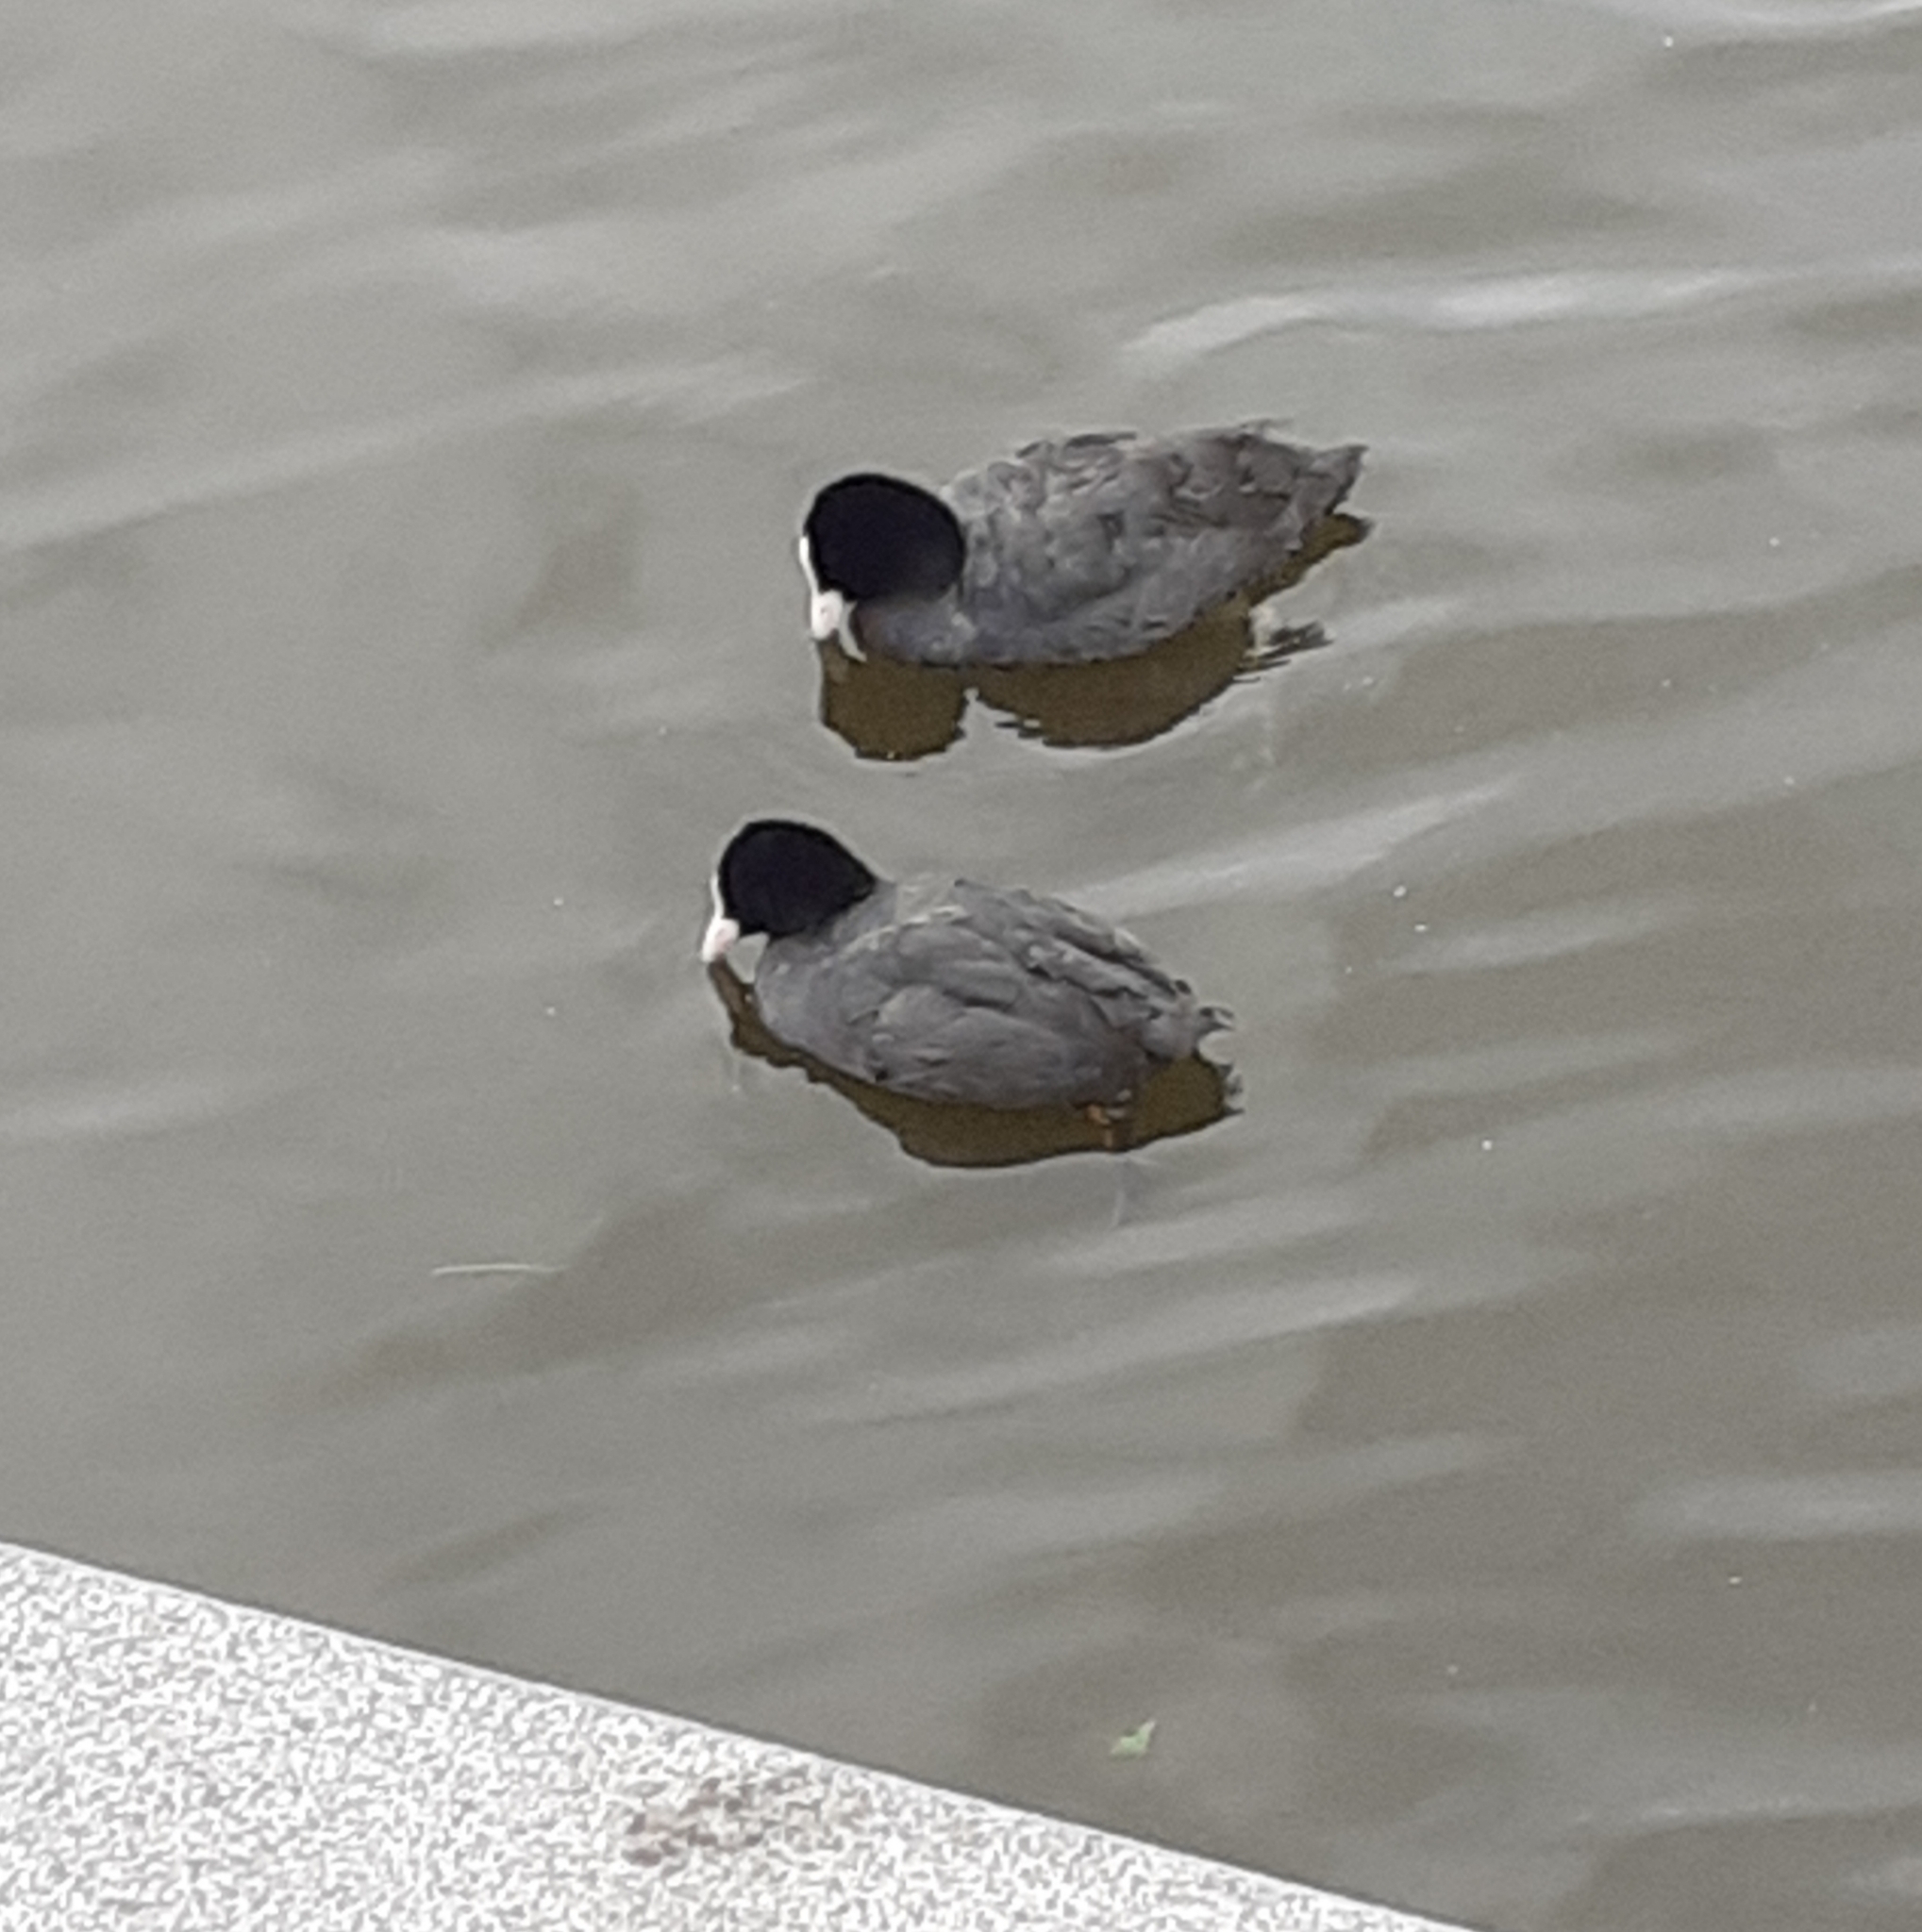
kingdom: Animalia
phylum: Chordata
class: Aves
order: Gruiformes
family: Rallidae
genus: Fulica
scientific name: Fulica atra
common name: Eurasian coot
